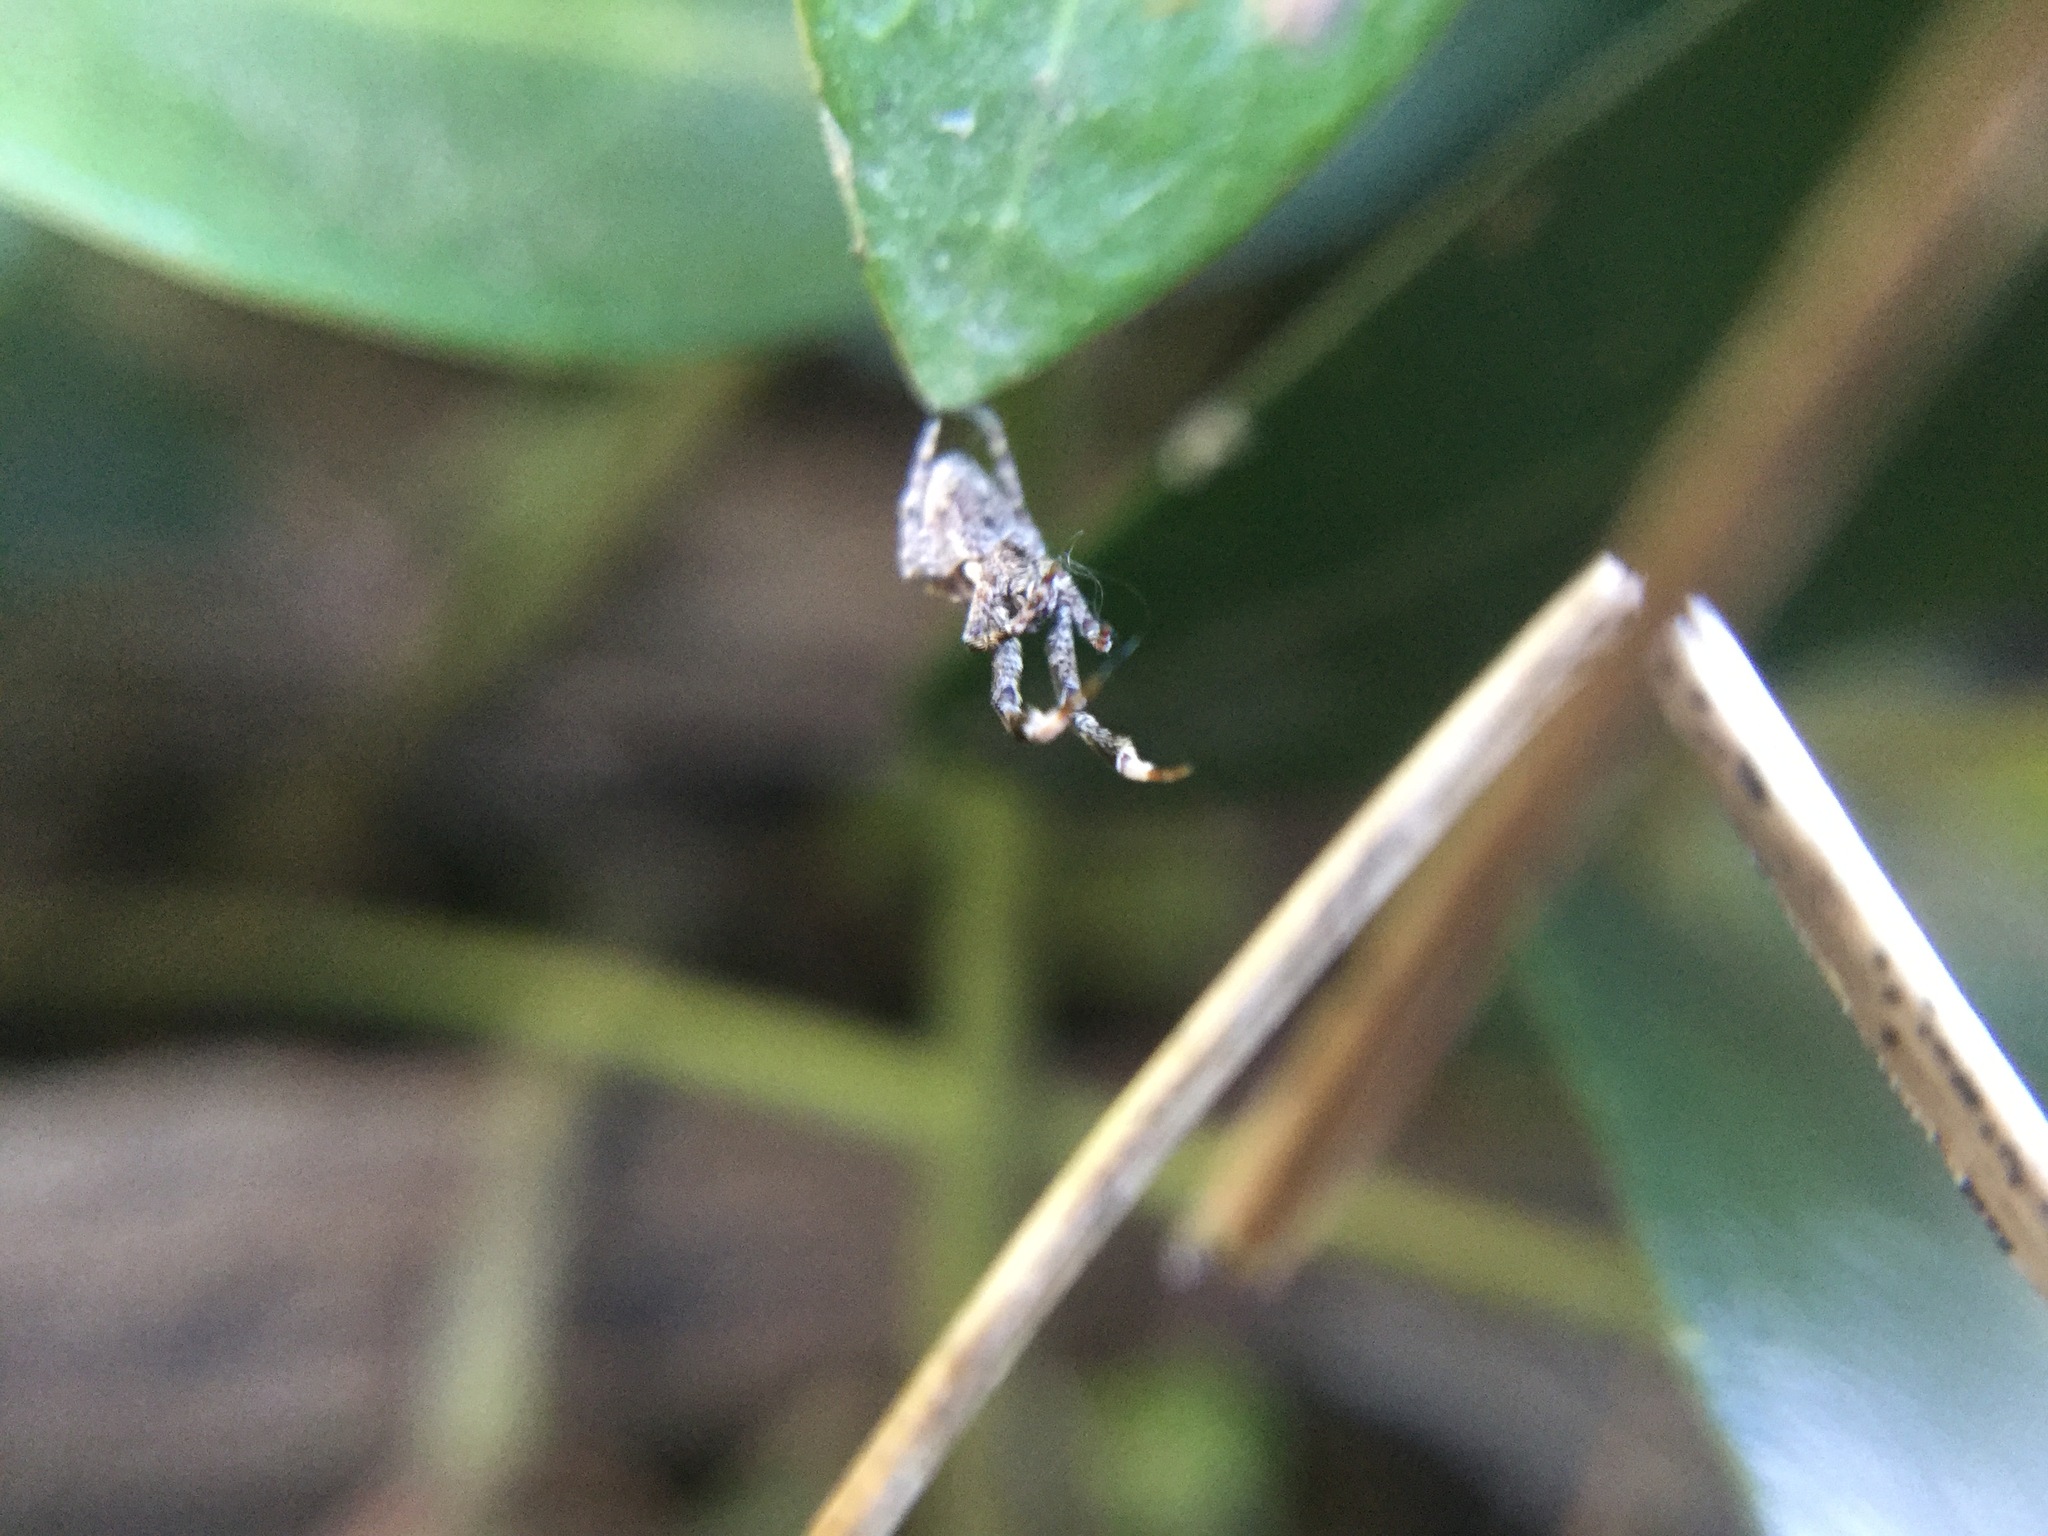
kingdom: Animalia
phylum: Arthropoda
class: Arachnida
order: Araneae
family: Uloboridae
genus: Uloborus
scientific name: Uloborus glomosus
